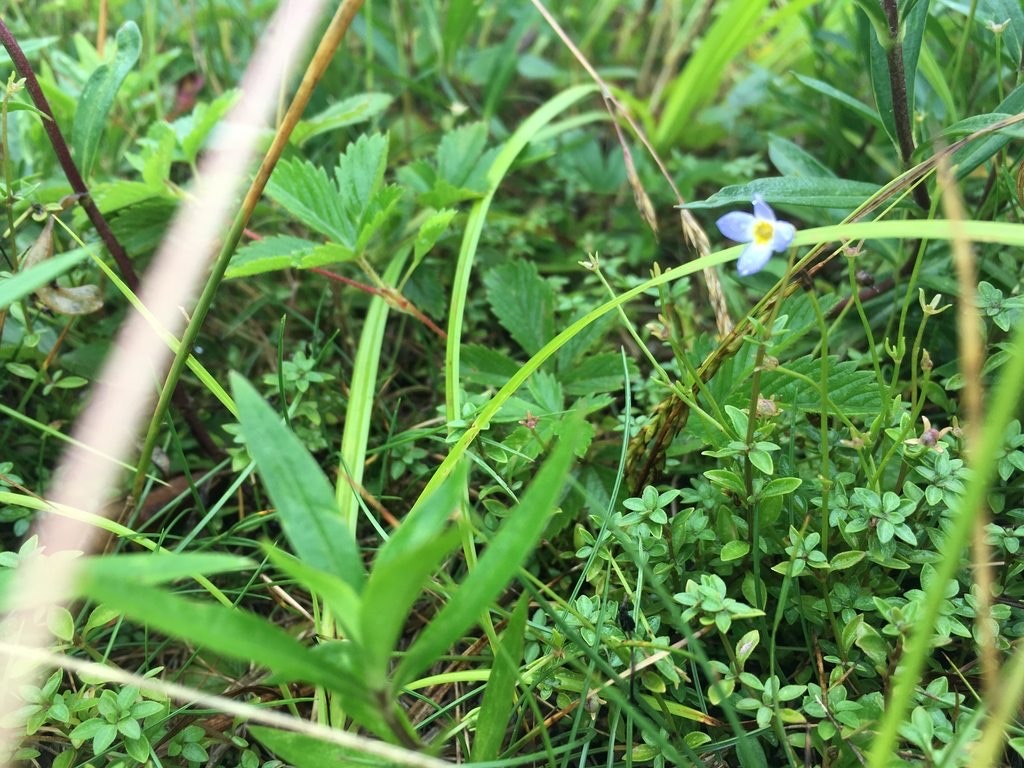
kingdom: Plantae
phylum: Tracheophyta
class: Magnoliopsida
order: Gentianales
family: Rubiaceae
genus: Houstonia
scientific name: Houstonia serpyllifolia
